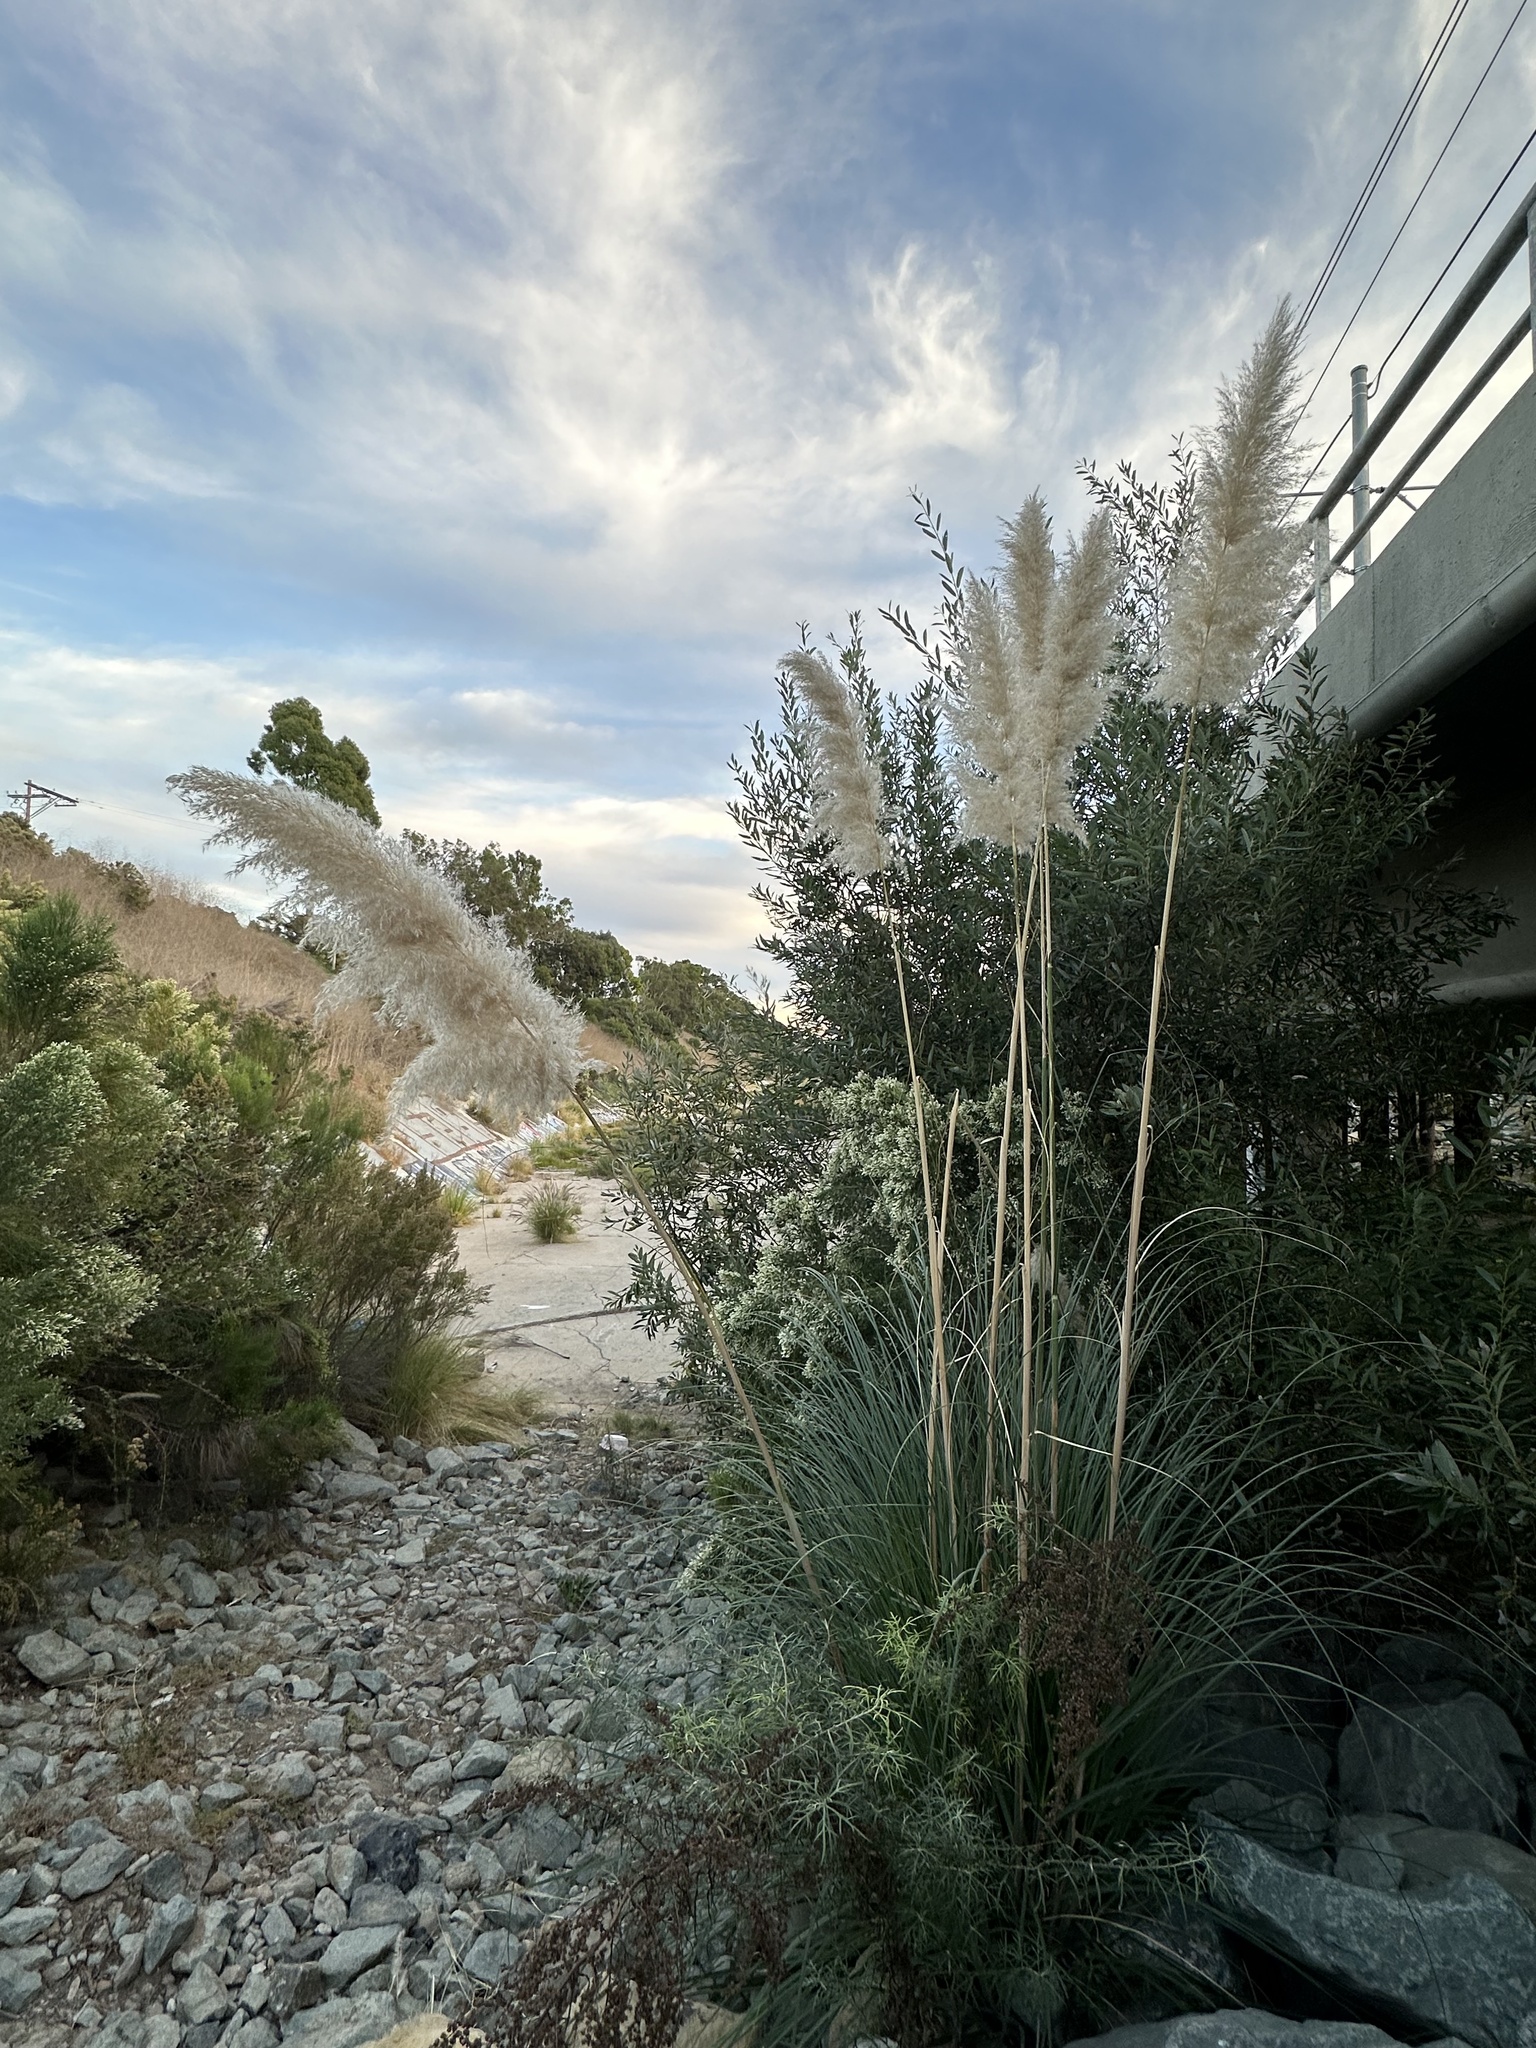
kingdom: Plantae
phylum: Tracheophyta
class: Liliopsida
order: Poales
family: Poaceae
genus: Cortaderia
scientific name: Cortaderia selloana
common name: Uruguayan pampas grass
